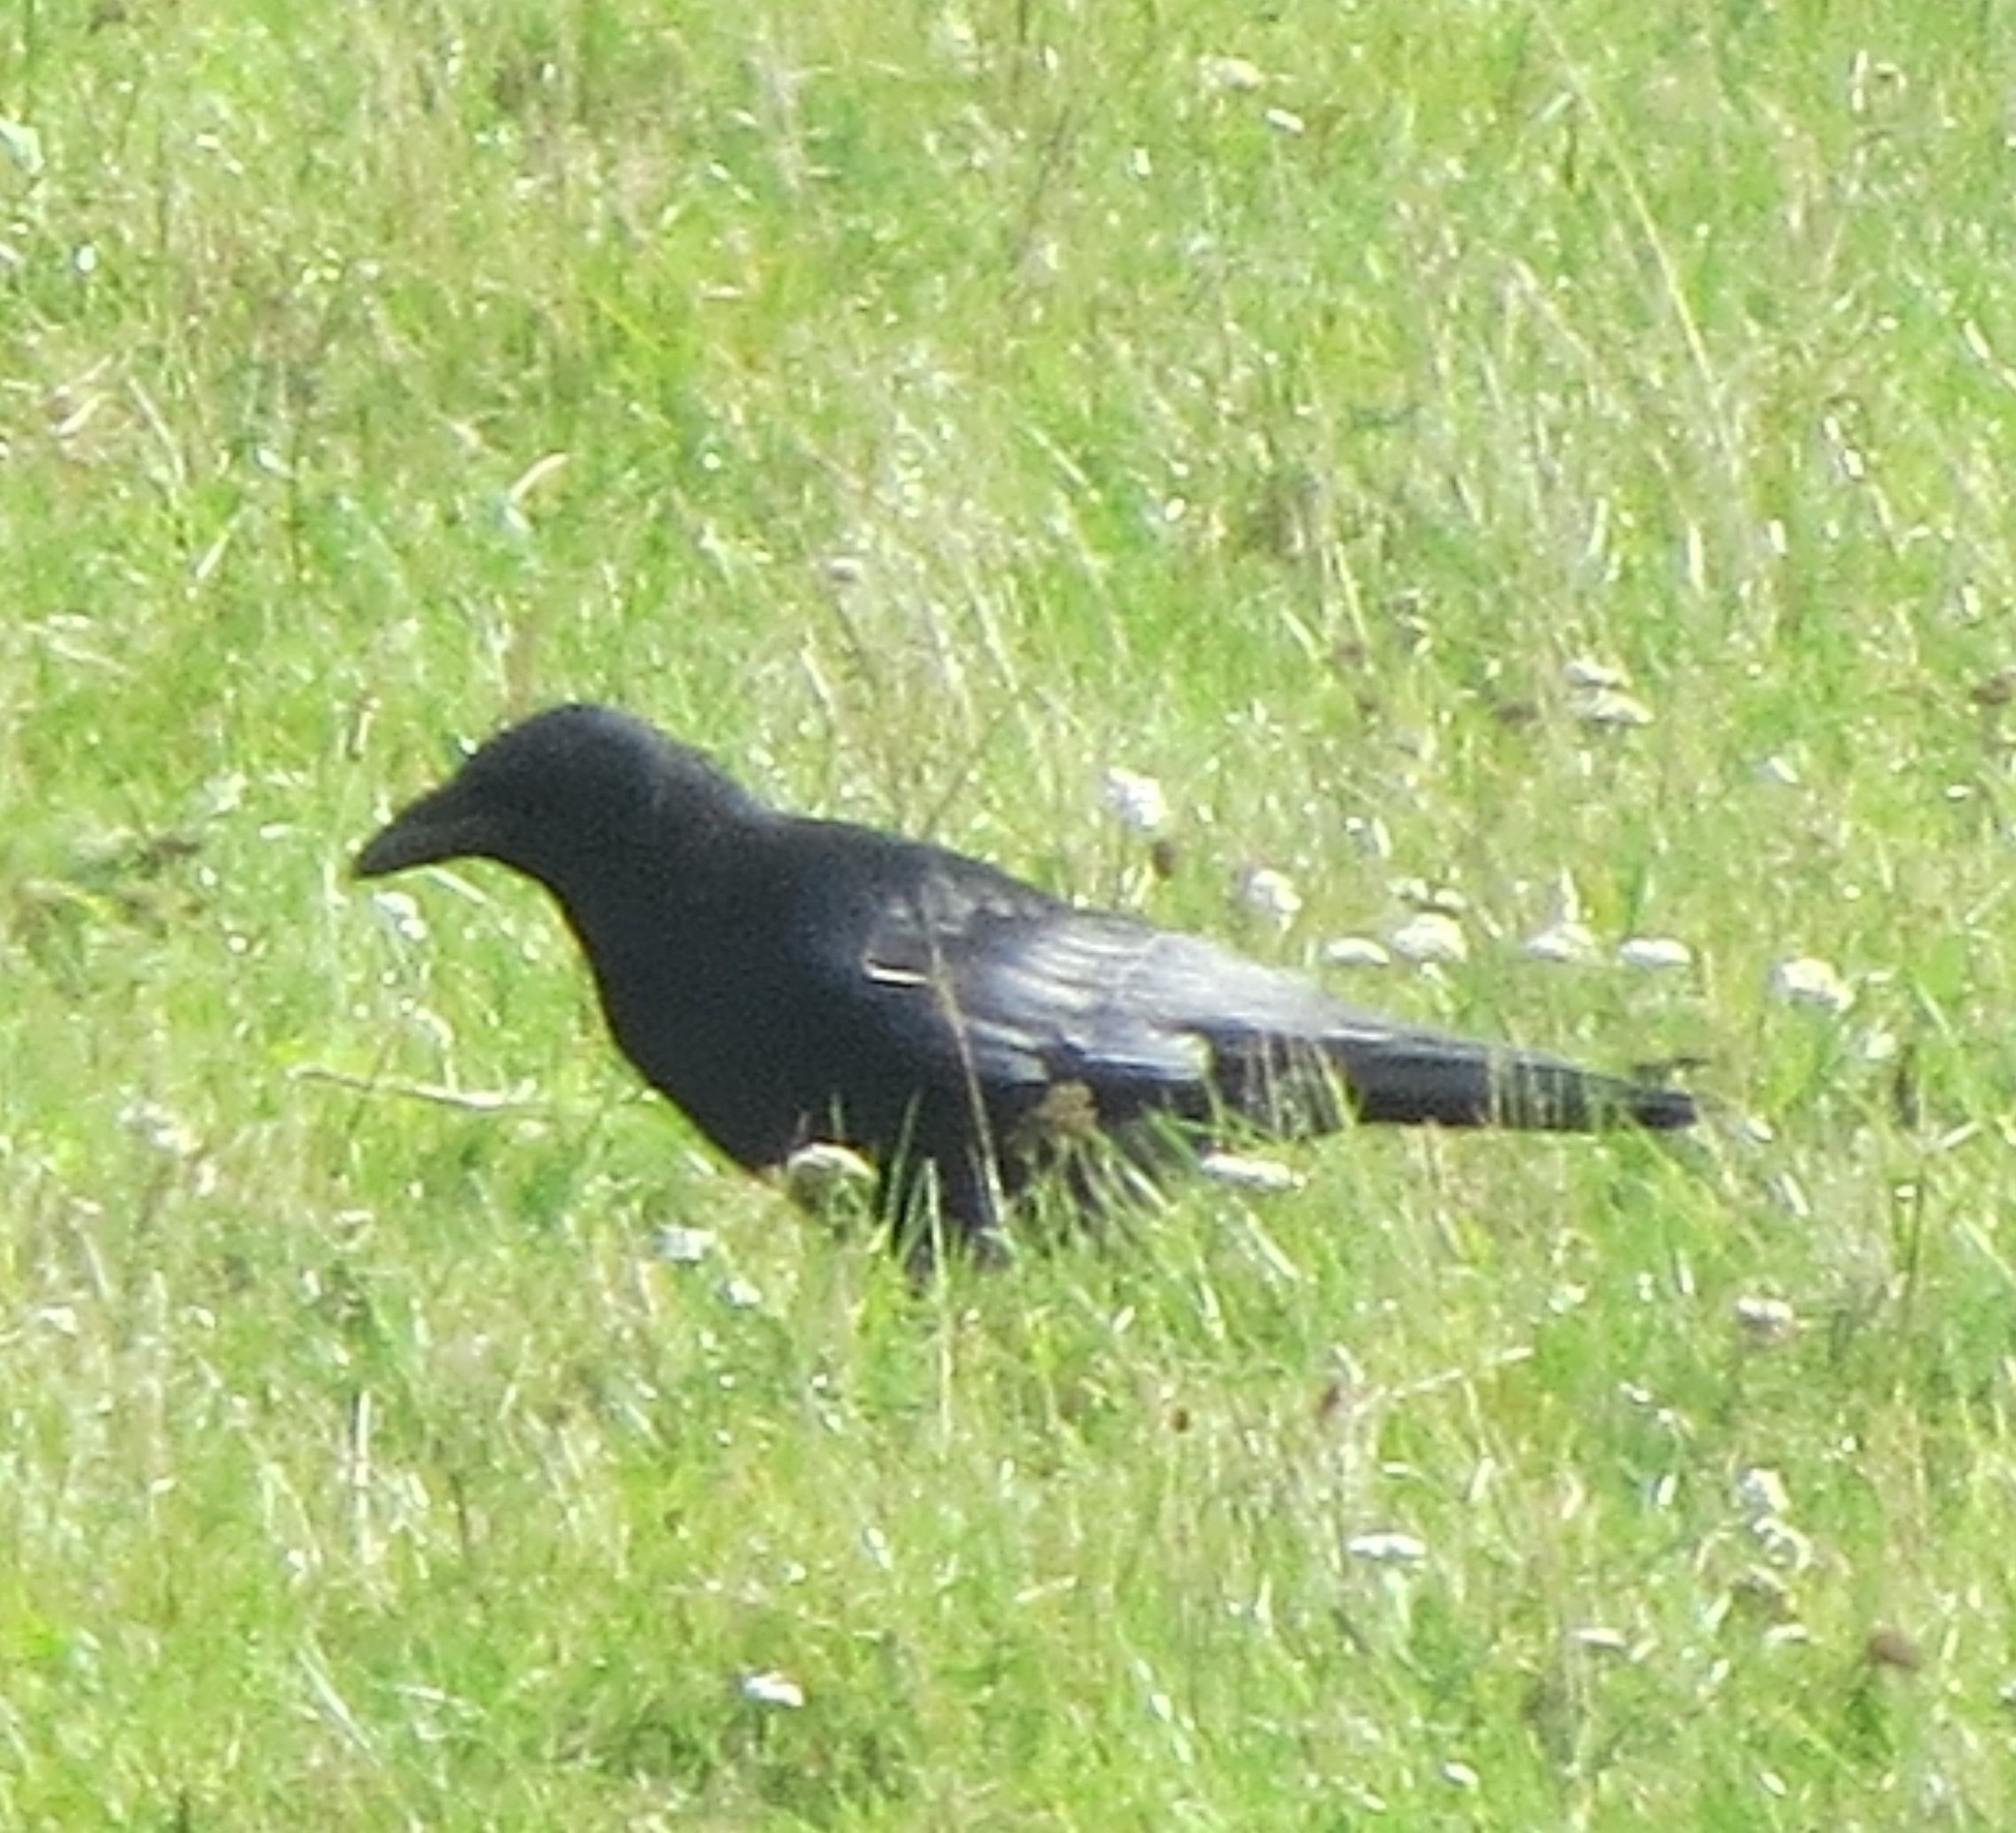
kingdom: Animalia
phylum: Chordata
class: Aves
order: Passeriformes
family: Corvidae
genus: Corvus
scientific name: Corvus corone
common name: Carrion crow
